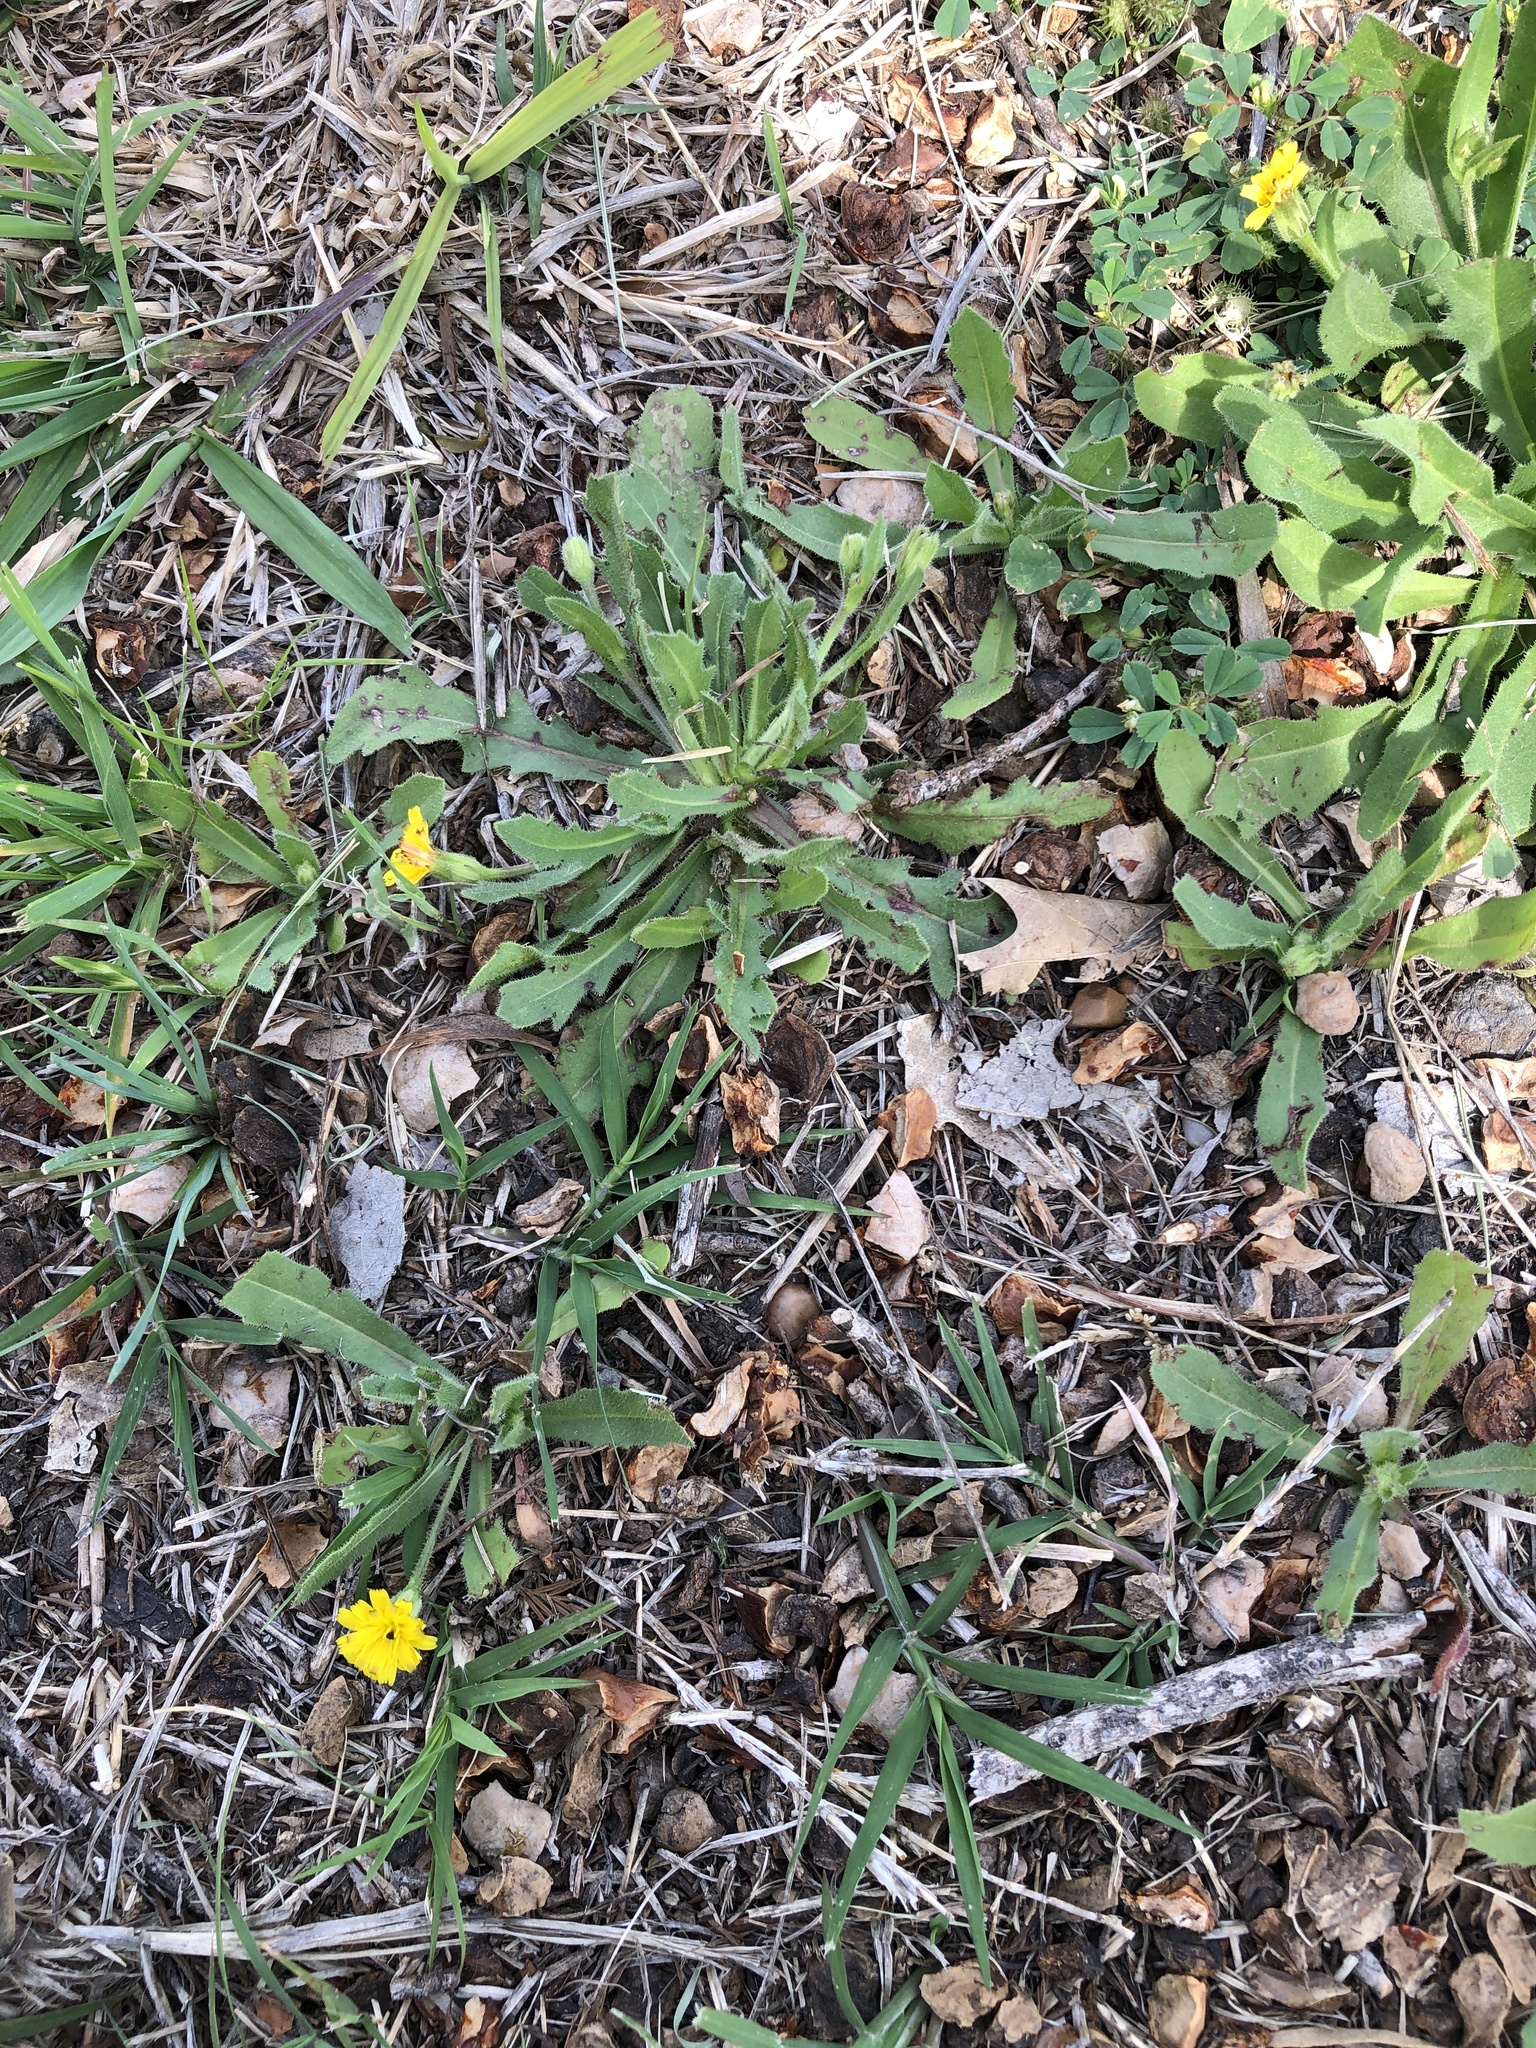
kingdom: Plantae
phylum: Tracheophyta
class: Magnoliopsida
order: Asterales
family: Asteraceae
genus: Hedypnois
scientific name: Hedypnois rhagadioloides
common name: Cretan weed
